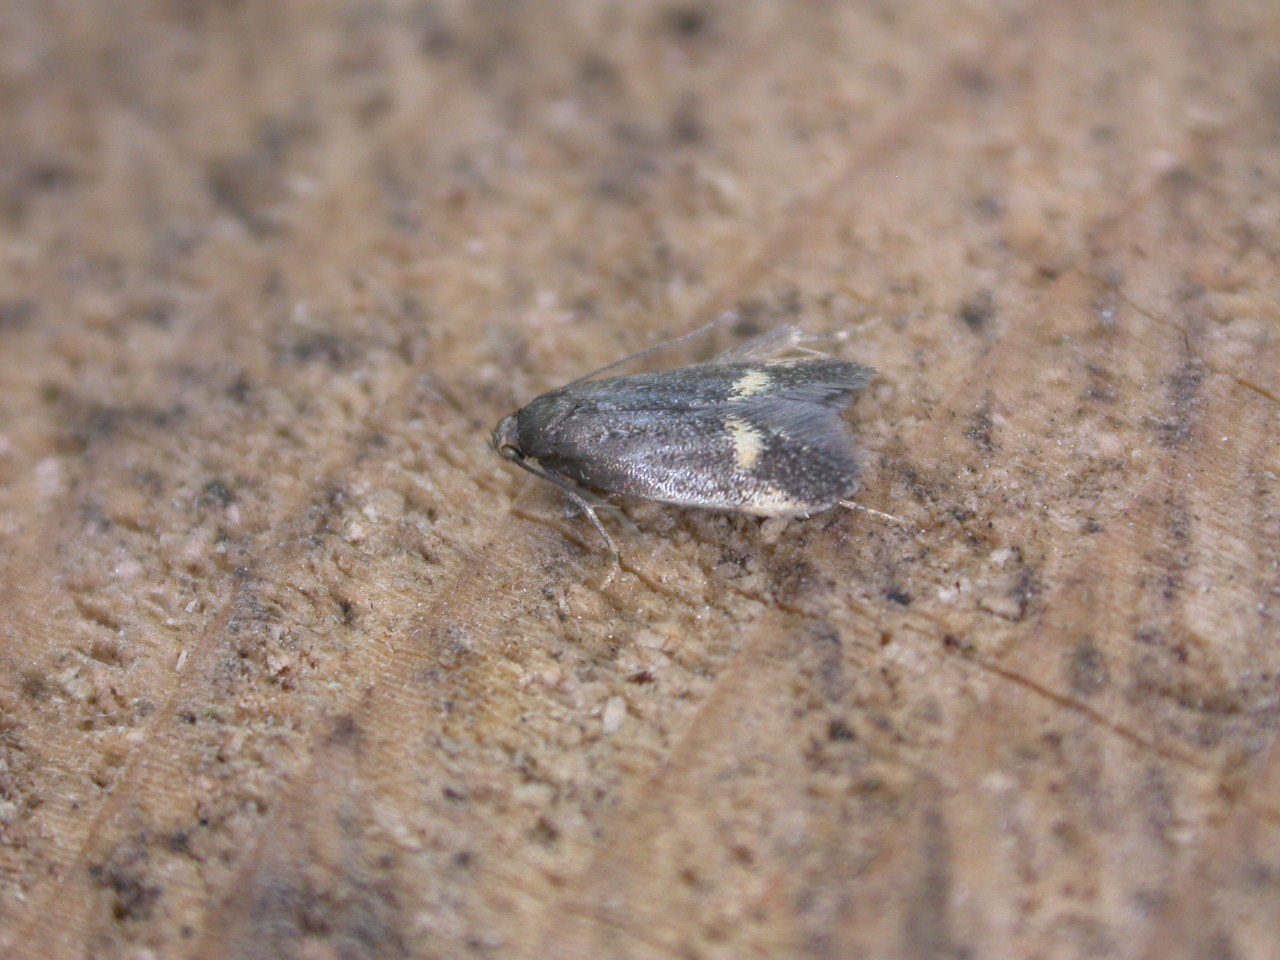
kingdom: Animalia
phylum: Arthropoda
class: Insecta
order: Lepidoptera
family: Oecophoridae
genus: Borkhausenia
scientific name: Borkhausenia minutella
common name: Thatch tubic
